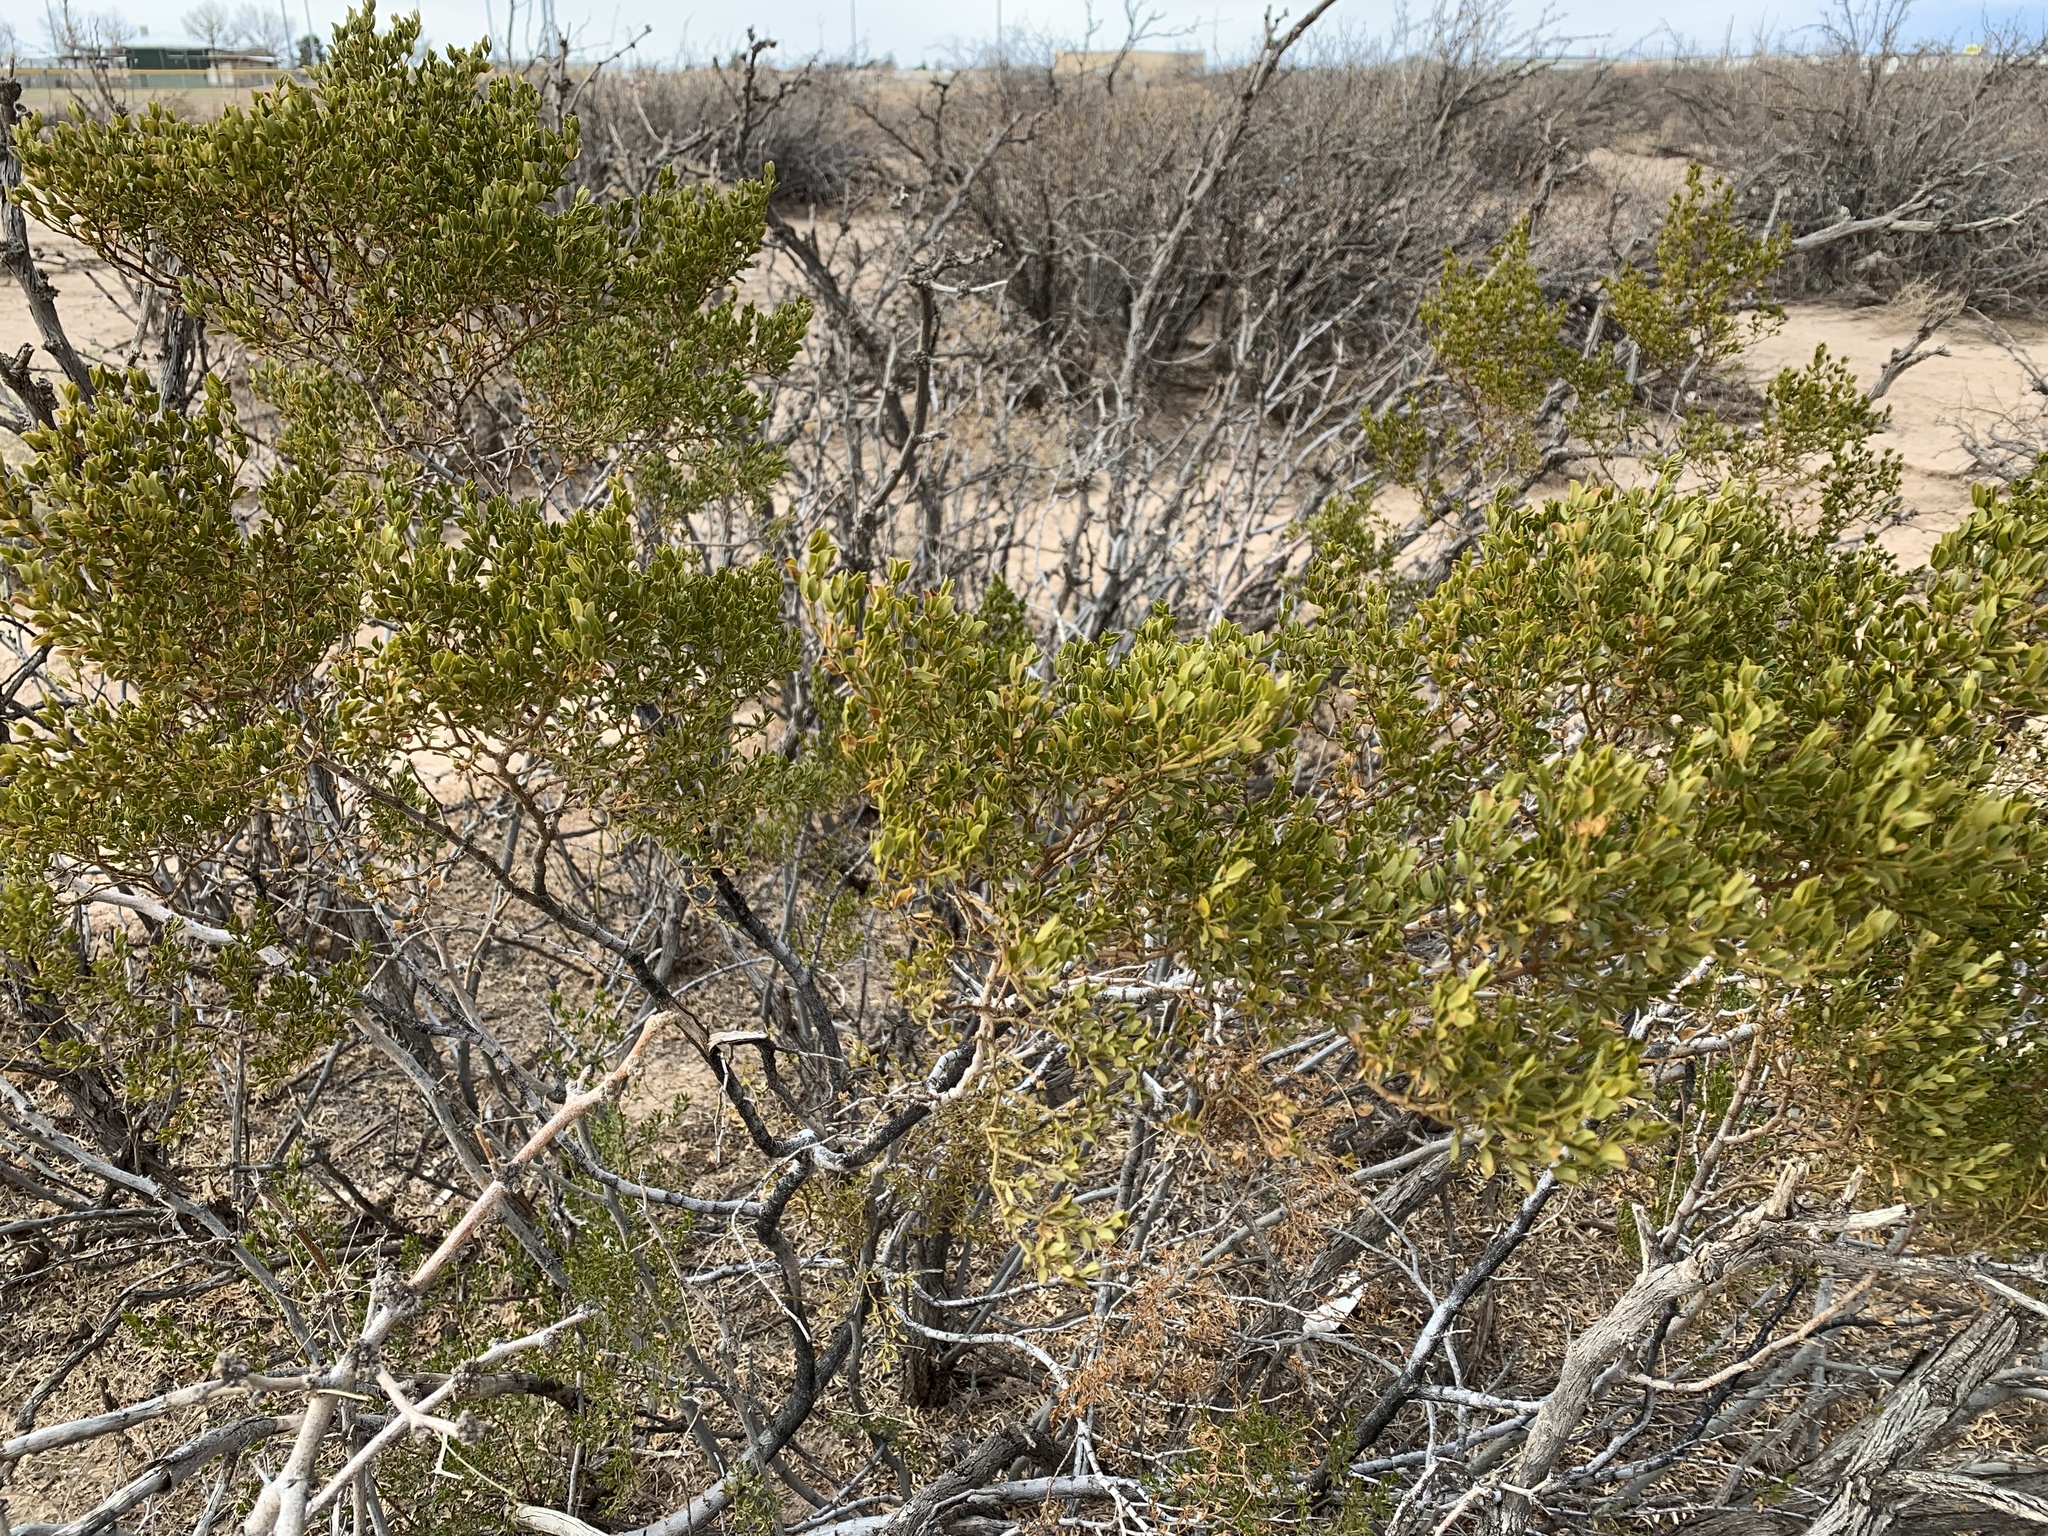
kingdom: Plantae
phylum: Tracheophyta
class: Magnoliopsida
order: Zygophyllales
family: Zygophyllaceae
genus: Larrea
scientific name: Larrea tridentata
